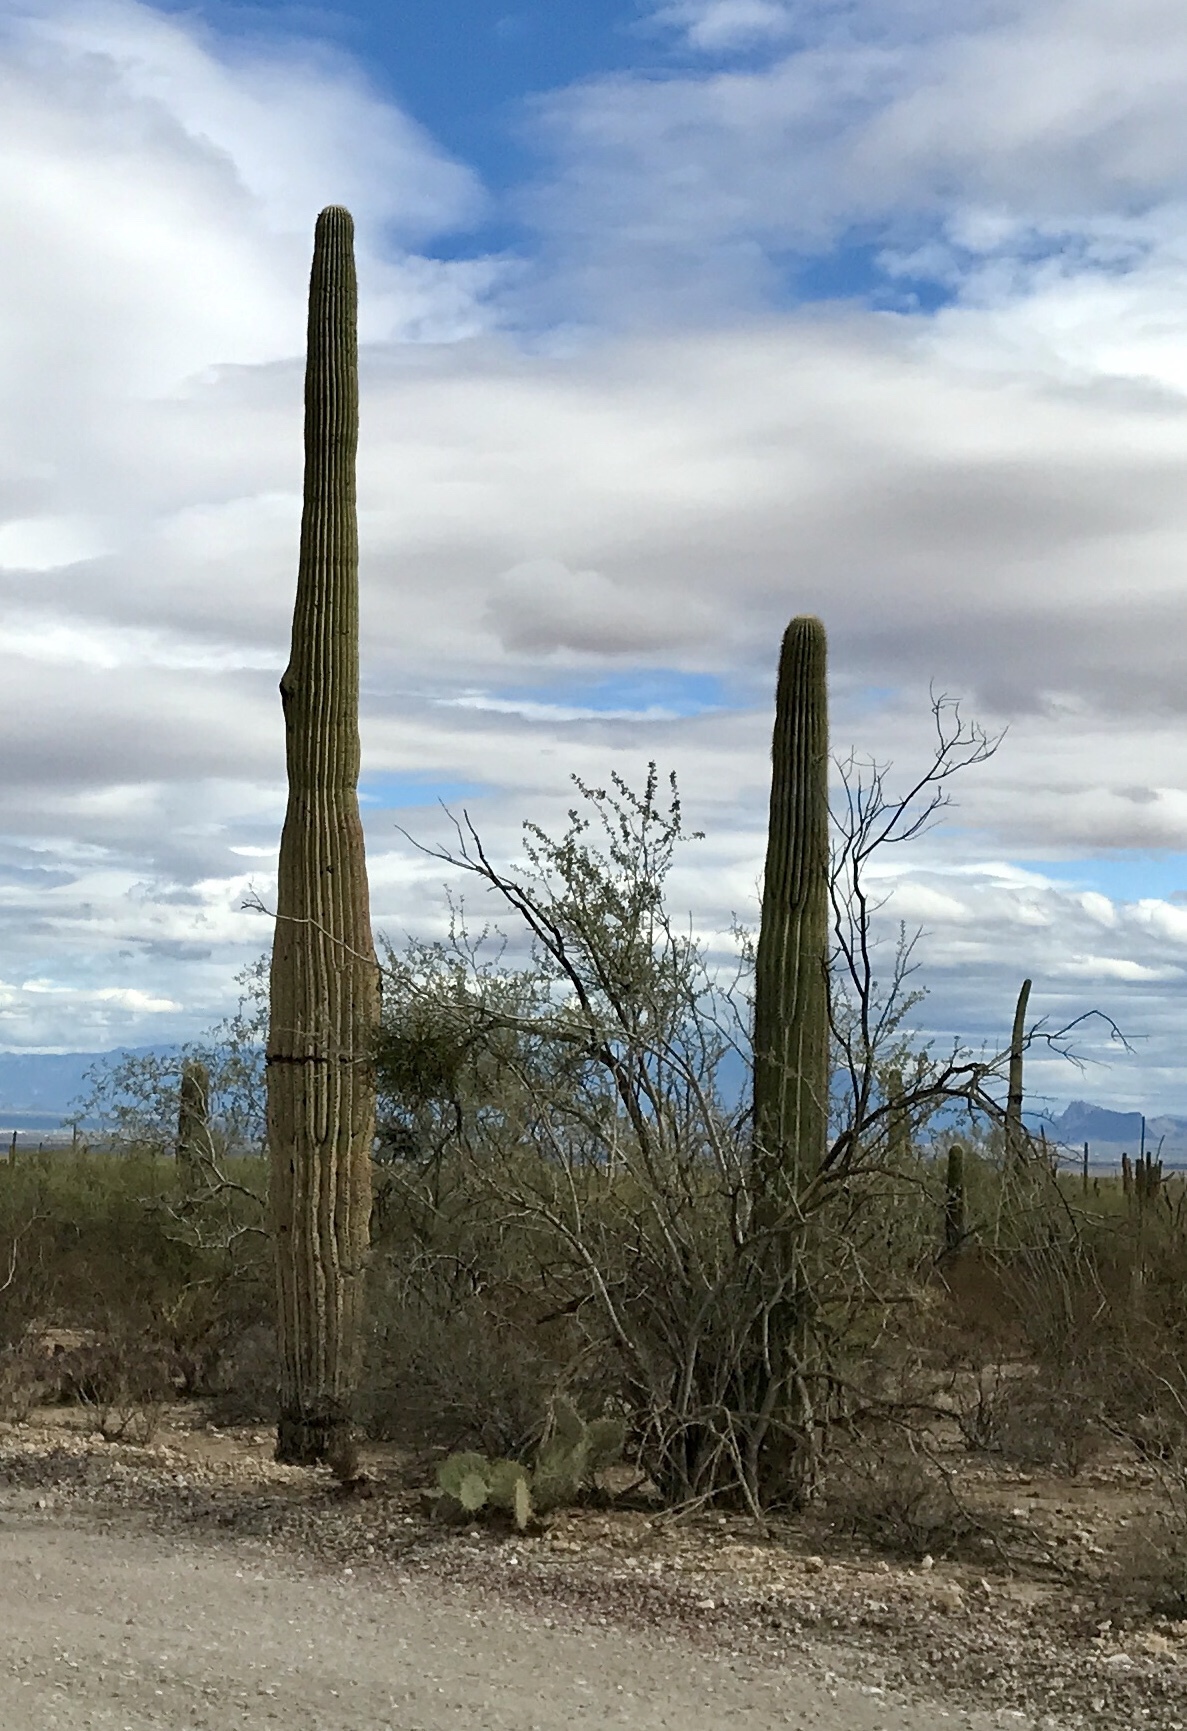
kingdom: Plantae
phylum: Tracheophyta
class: Magnoliopsida
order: Caryophyllales
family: Cactaceae
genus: Carnegiea
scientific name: Carnegiea gigantea
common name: Saguaro
